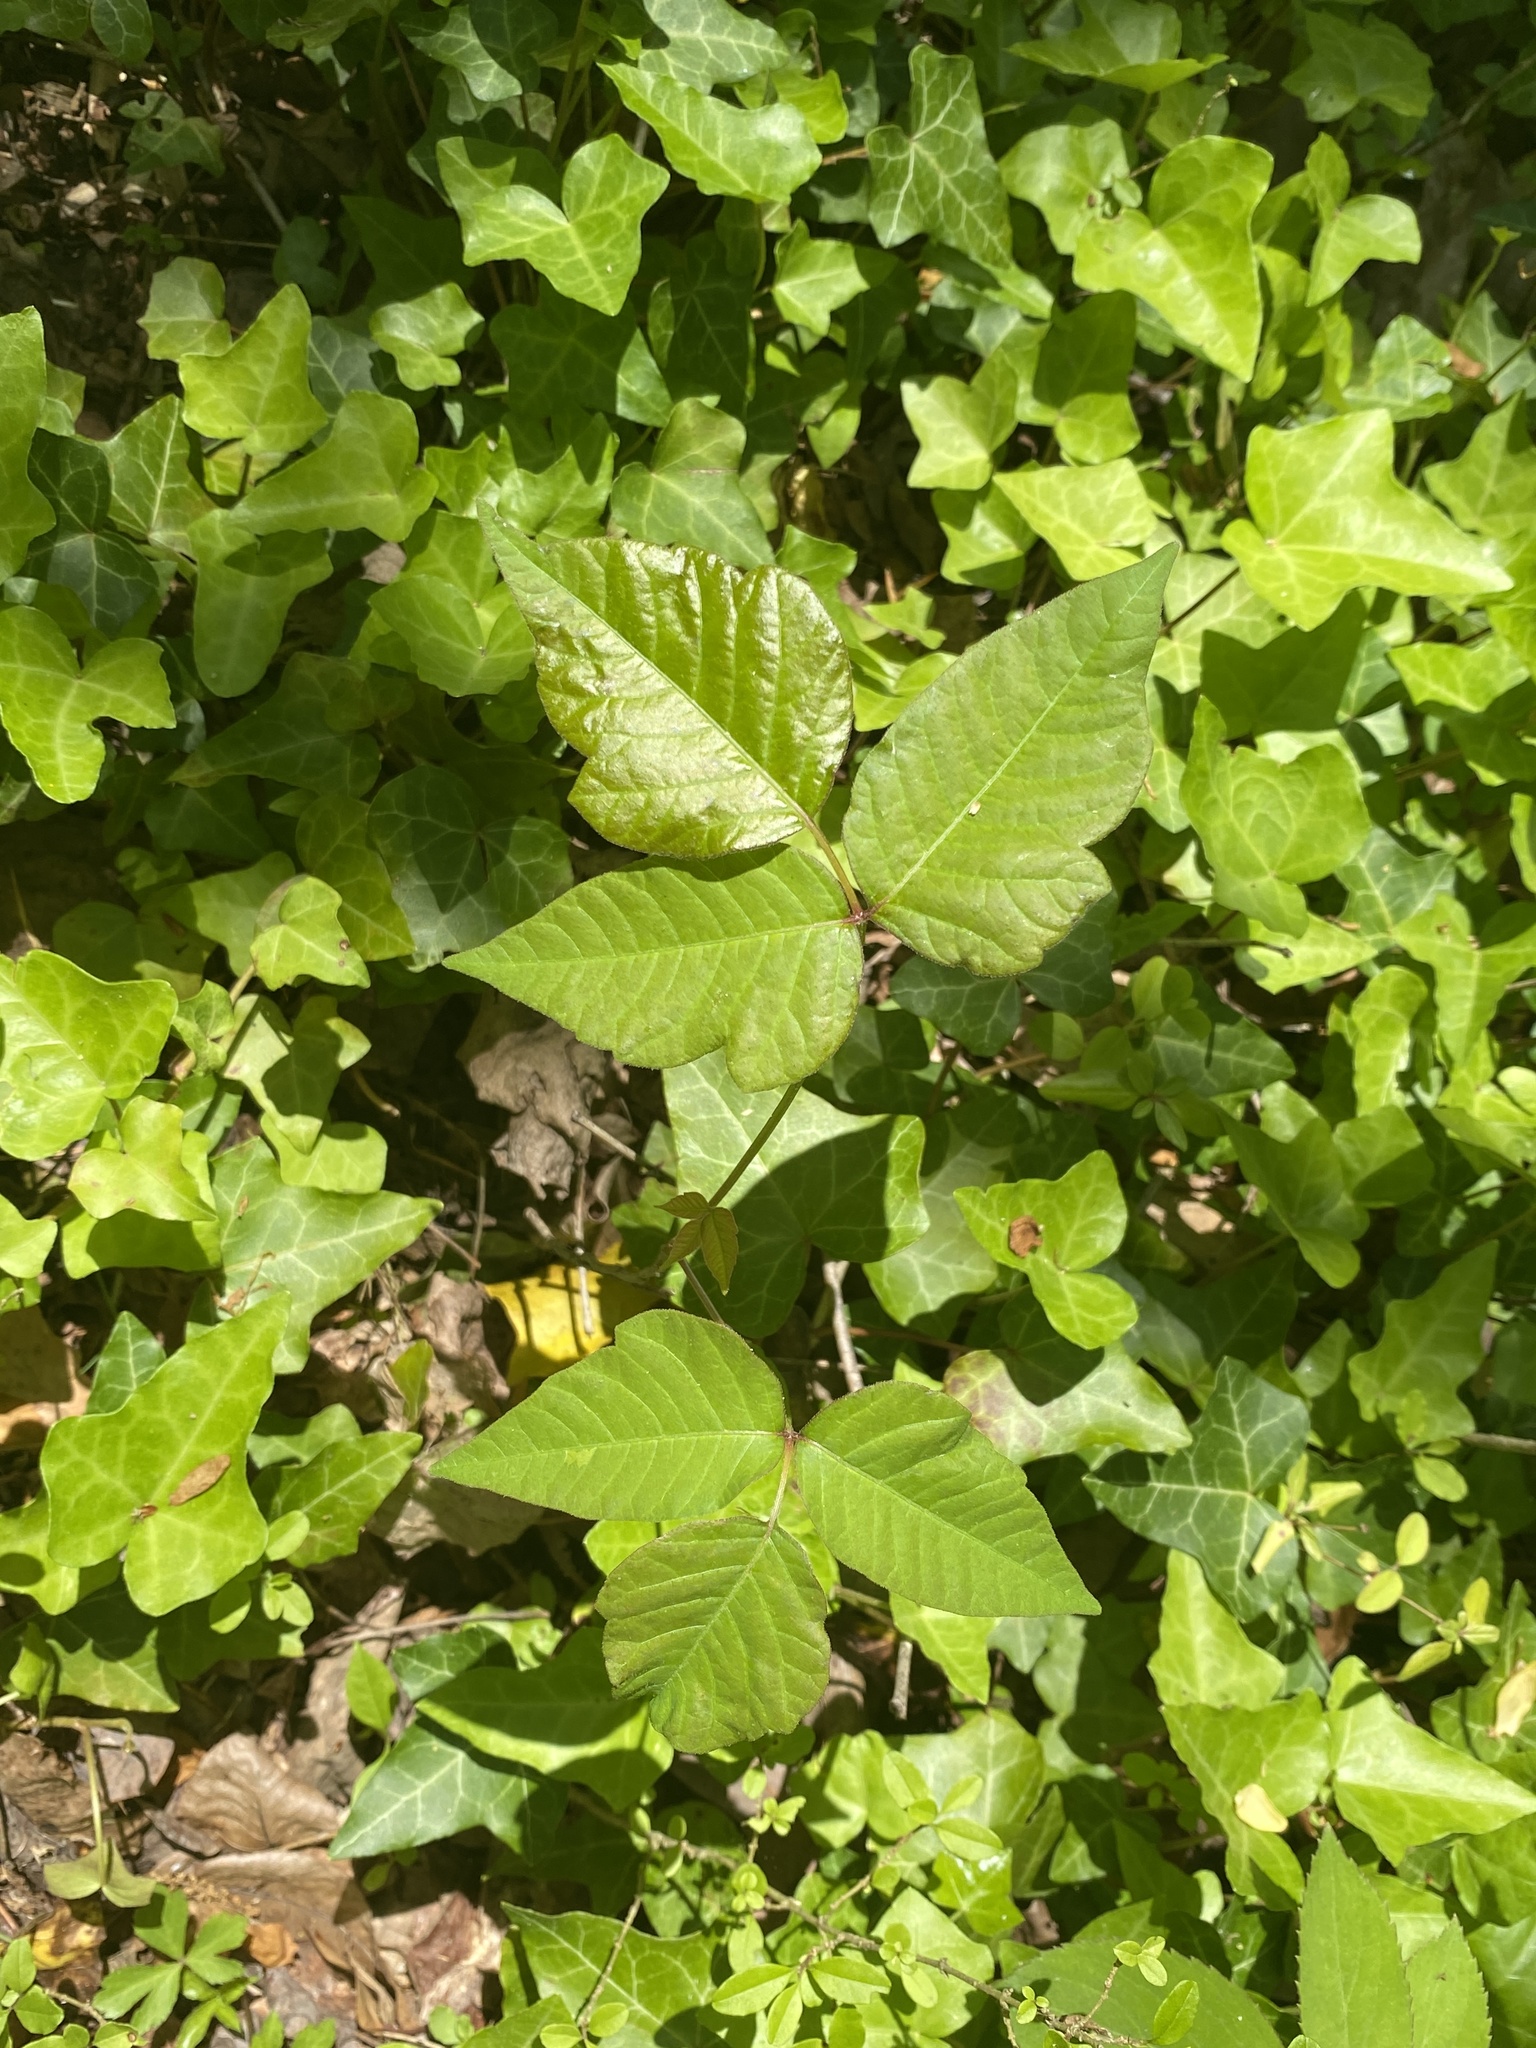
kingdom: Plantae
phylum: Tracheophyta
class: Magnoliopsida
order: Sapindales
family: Anacardiaceae
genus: Toxicodendron
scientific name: Toxicodendron radicans
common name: Poison ivy
